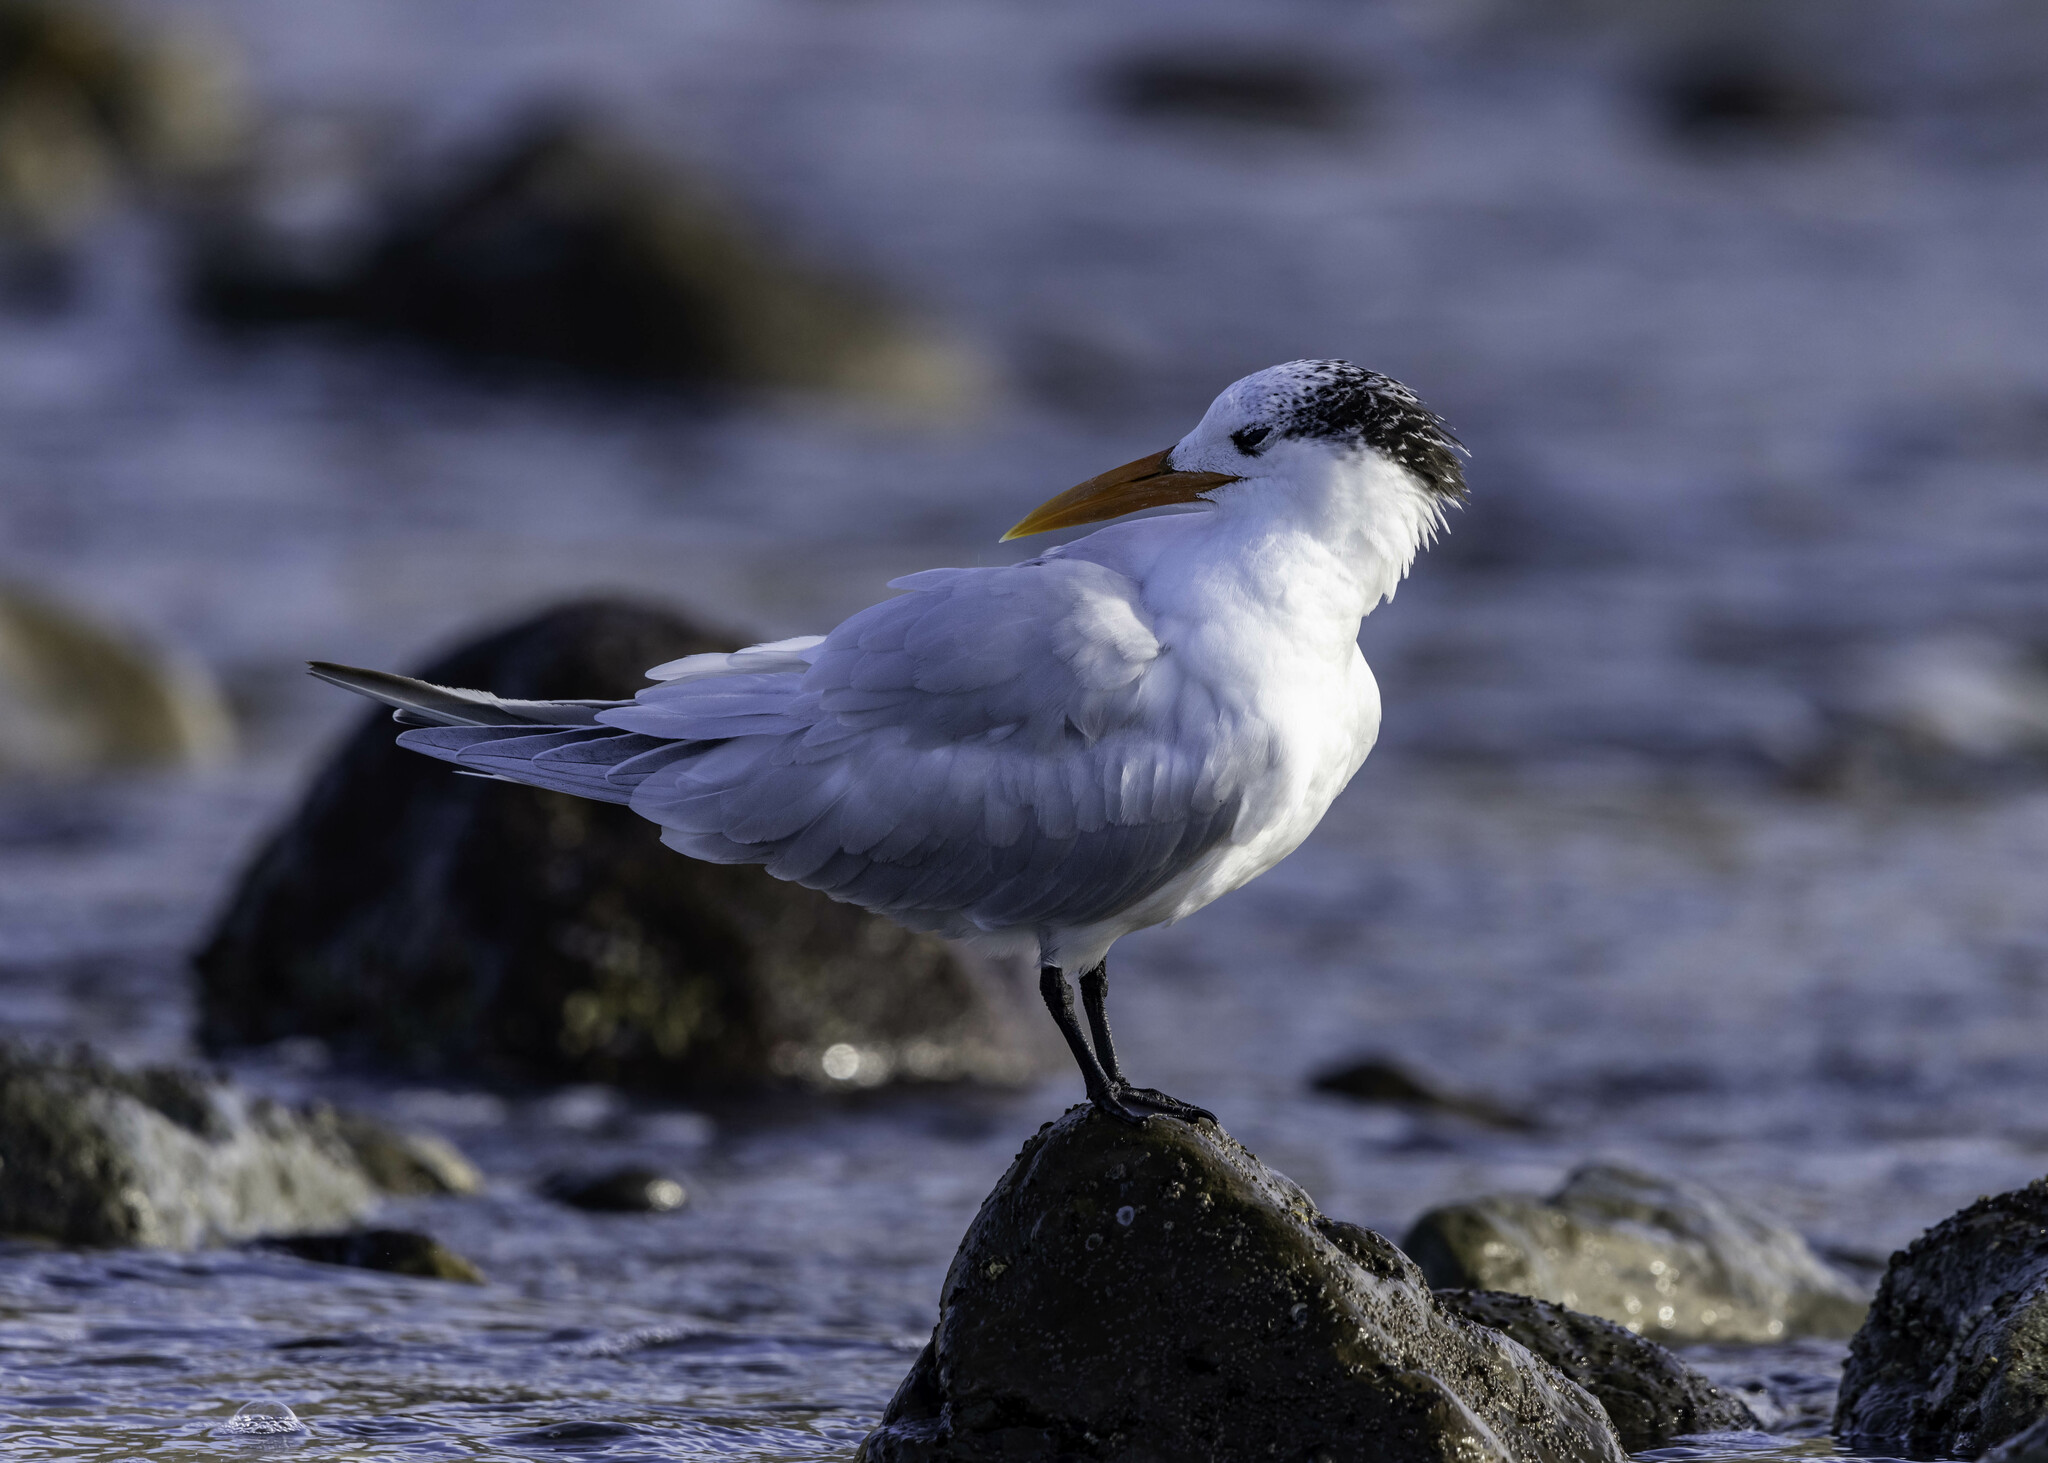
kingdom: Animalia
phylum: Chordata
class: Aves
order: Charadriiformes
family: Laridae
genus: Thalasseus
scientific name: Thalasseus maximus
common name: Royal tern
